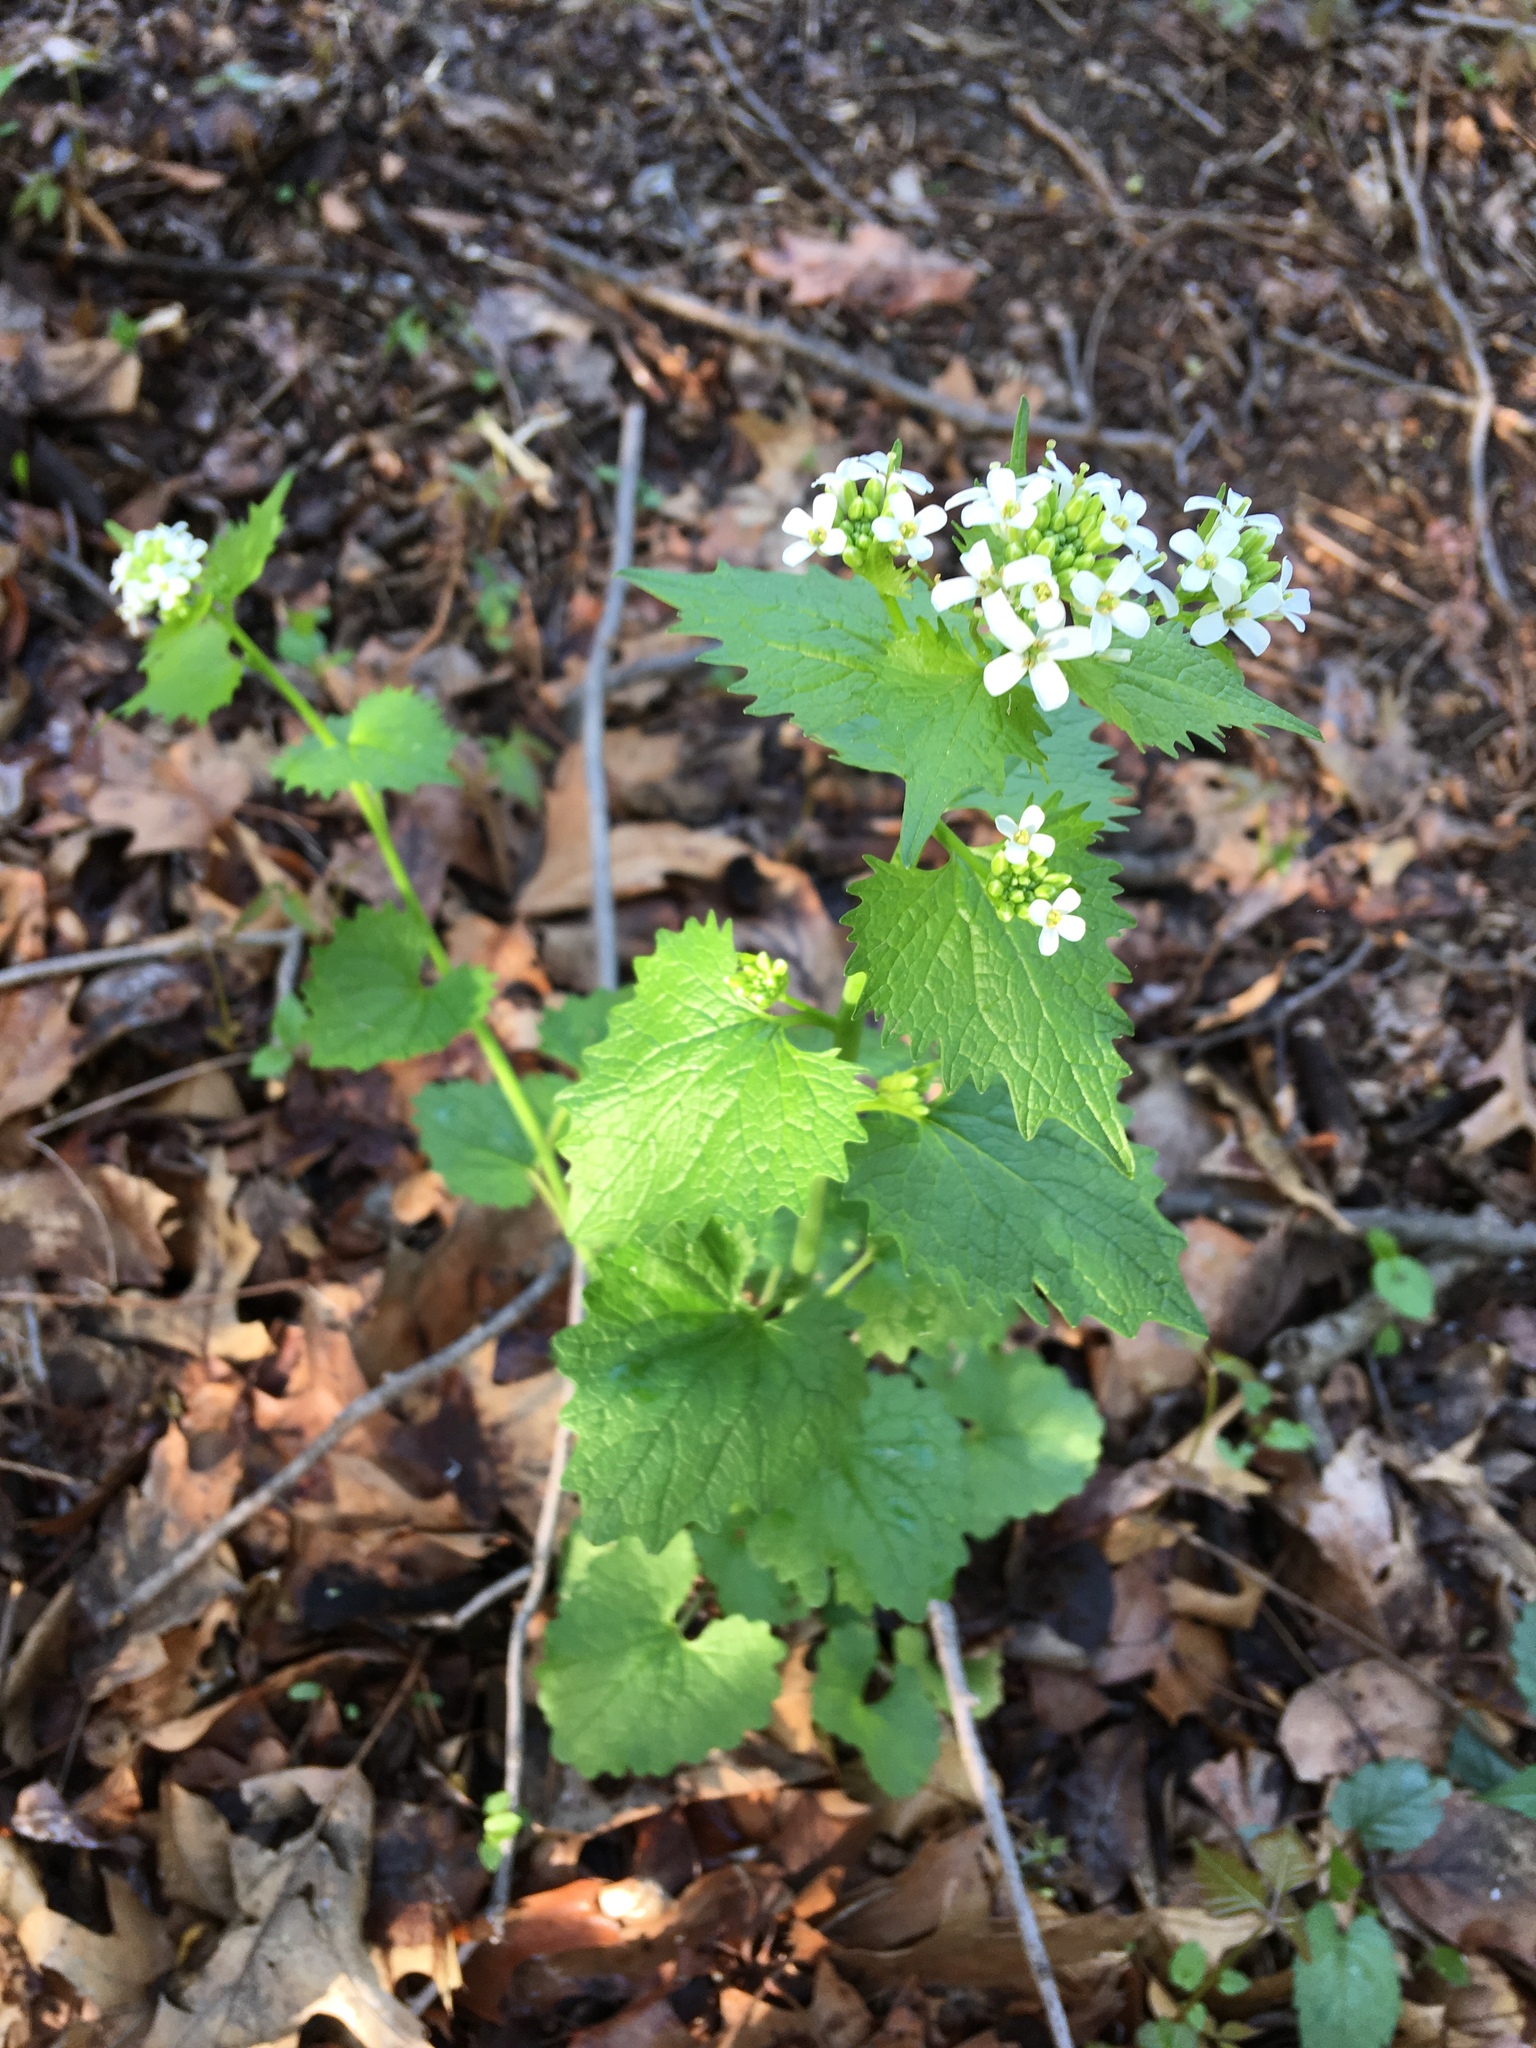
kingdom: Plantae
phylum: Tracheophyta
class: Magnoliopsida
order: Brassicales
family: Brassicaceae
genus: Alliaria
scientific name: Alliaria petiolata
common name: Garlic mustard
